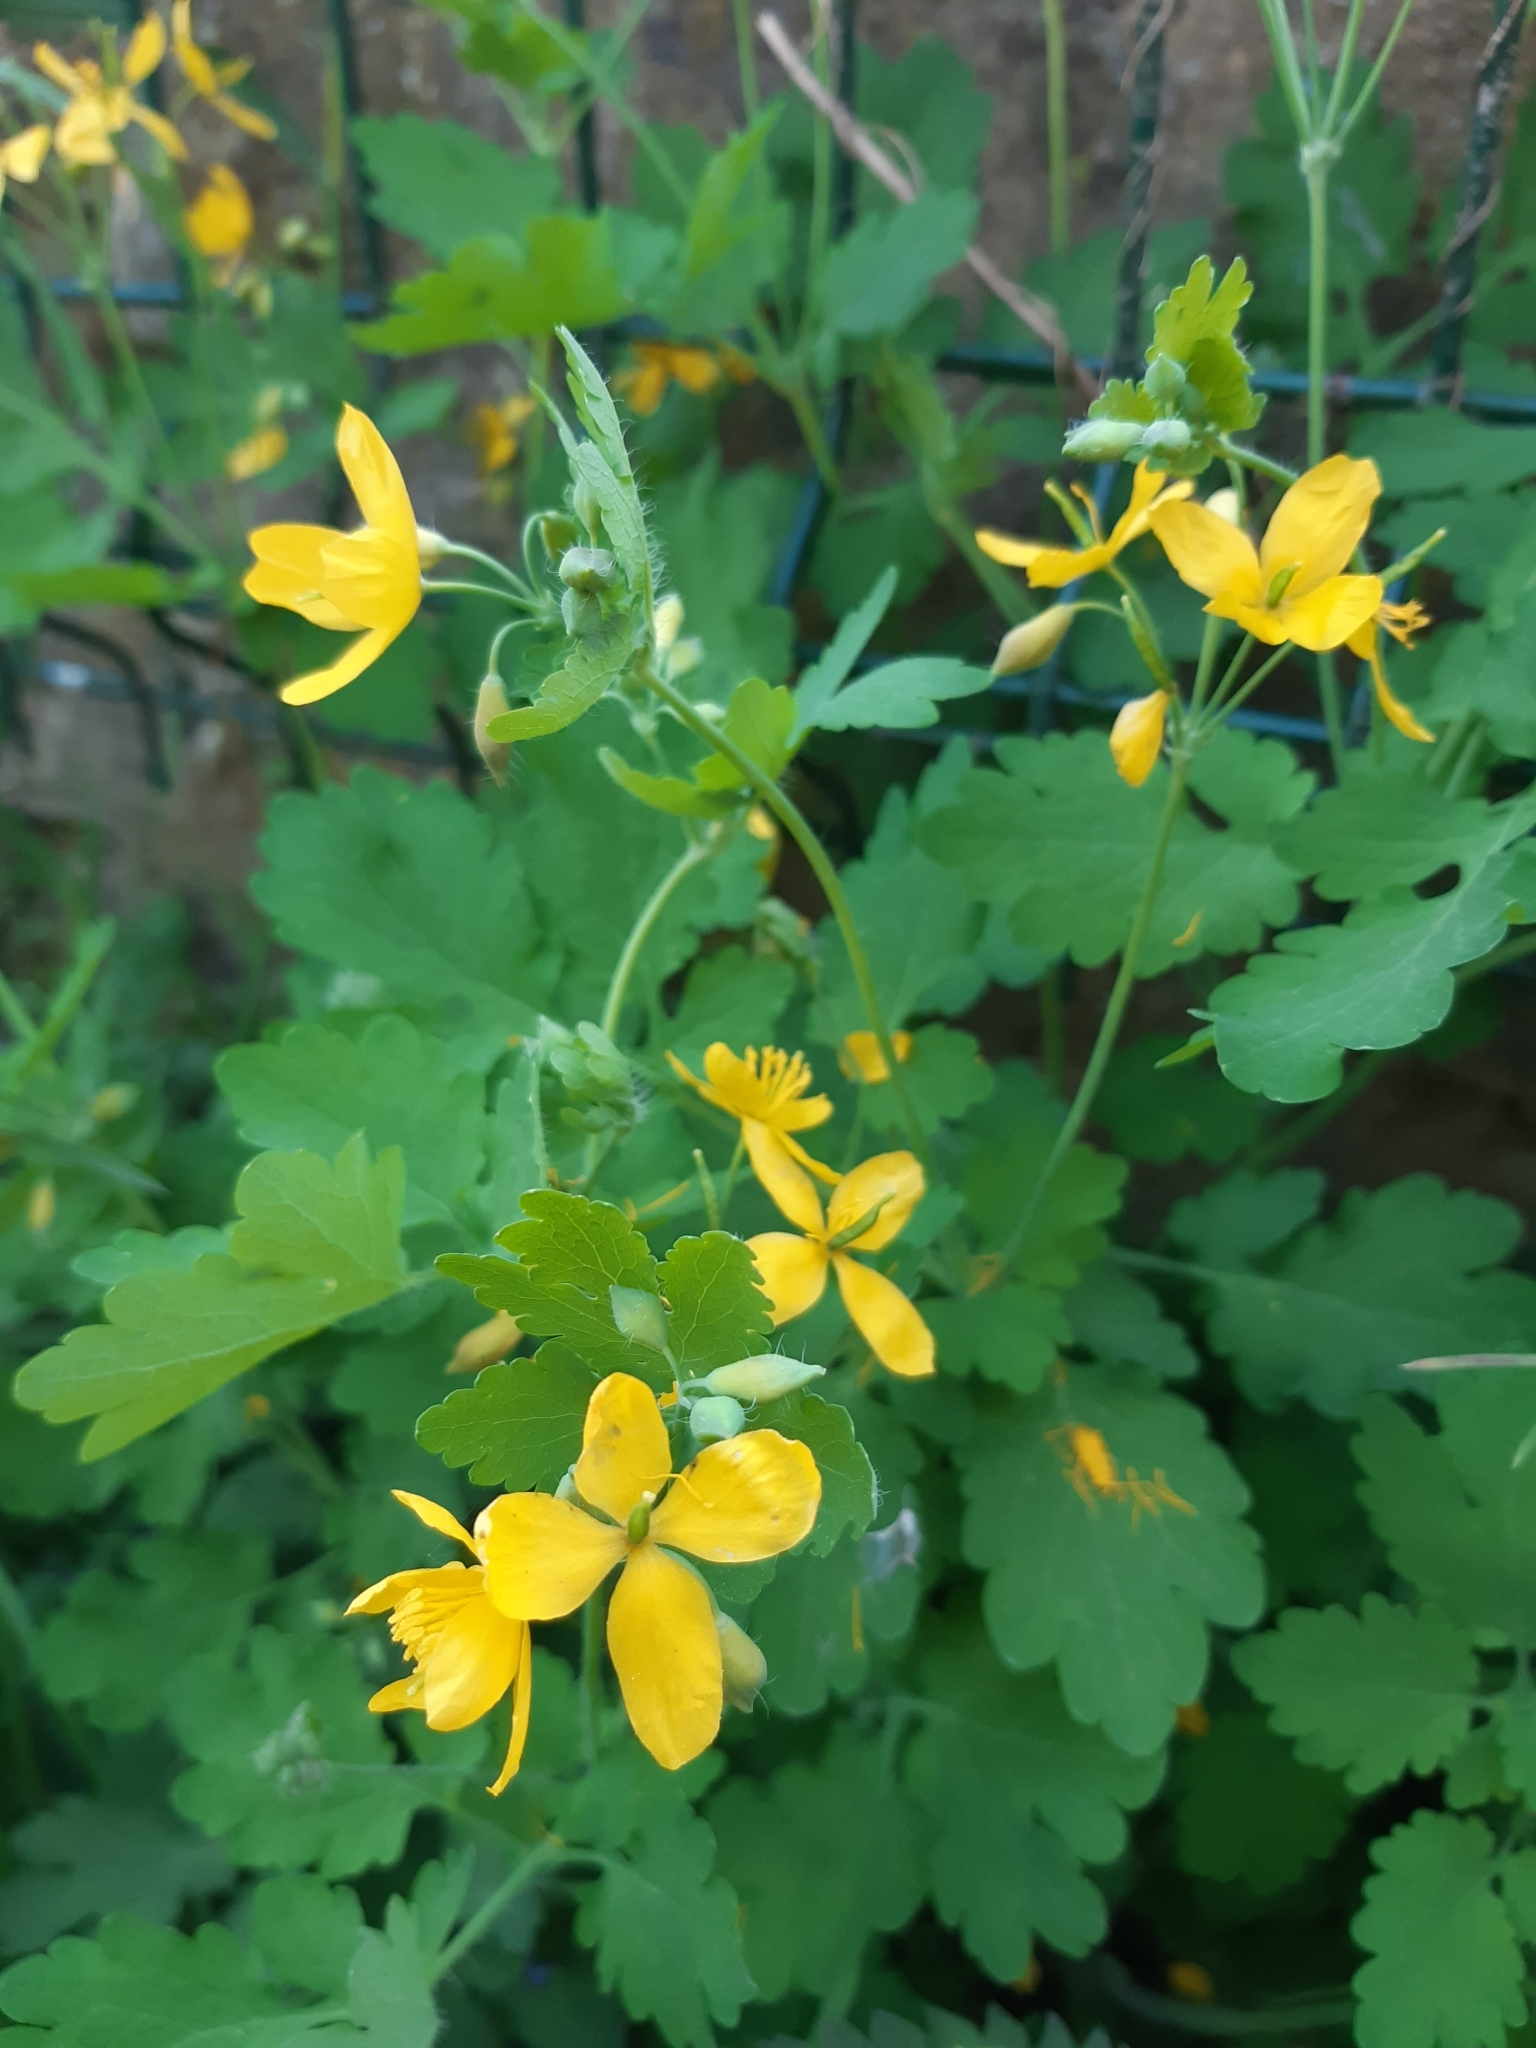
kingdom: Plantae
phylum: Tracheophyta
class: Magnoliopsida
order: Ranunculales
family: Papaveraceae
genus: Chelidonium
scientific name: Chelidonium majus
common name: Greater celandine
